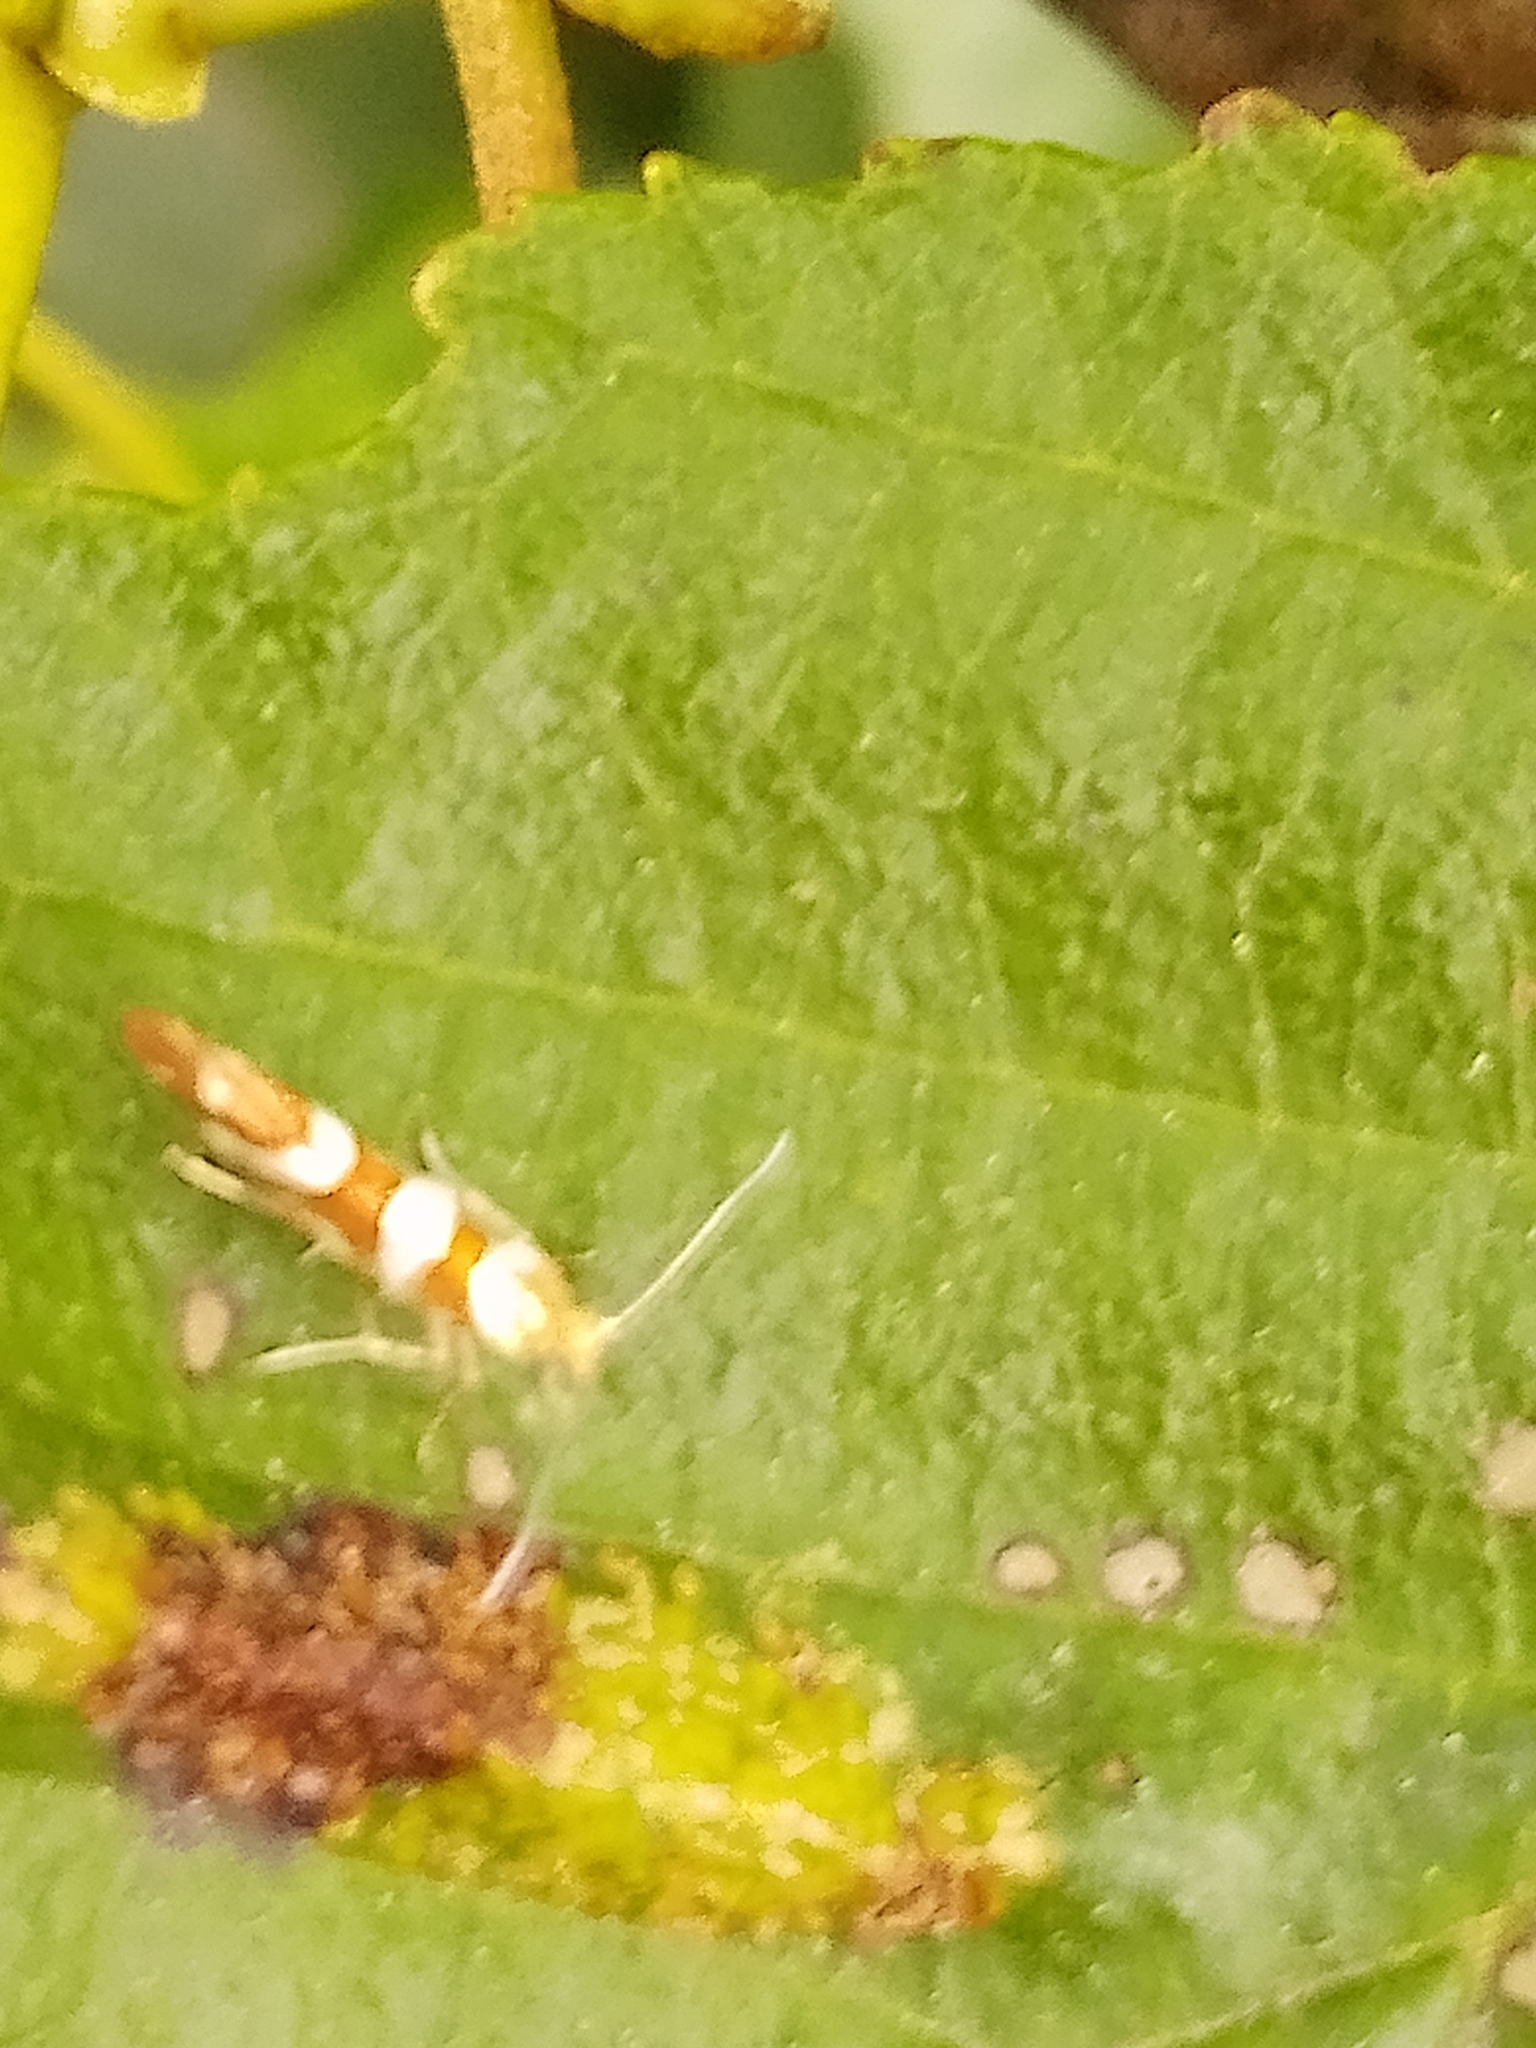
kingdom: Animalia
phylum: Arthropoda
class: Insecta
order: Lepidoptera
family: Argyresthiidae
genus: Argyresthia
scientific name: Argyresthia goedartella
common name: Golden argent
